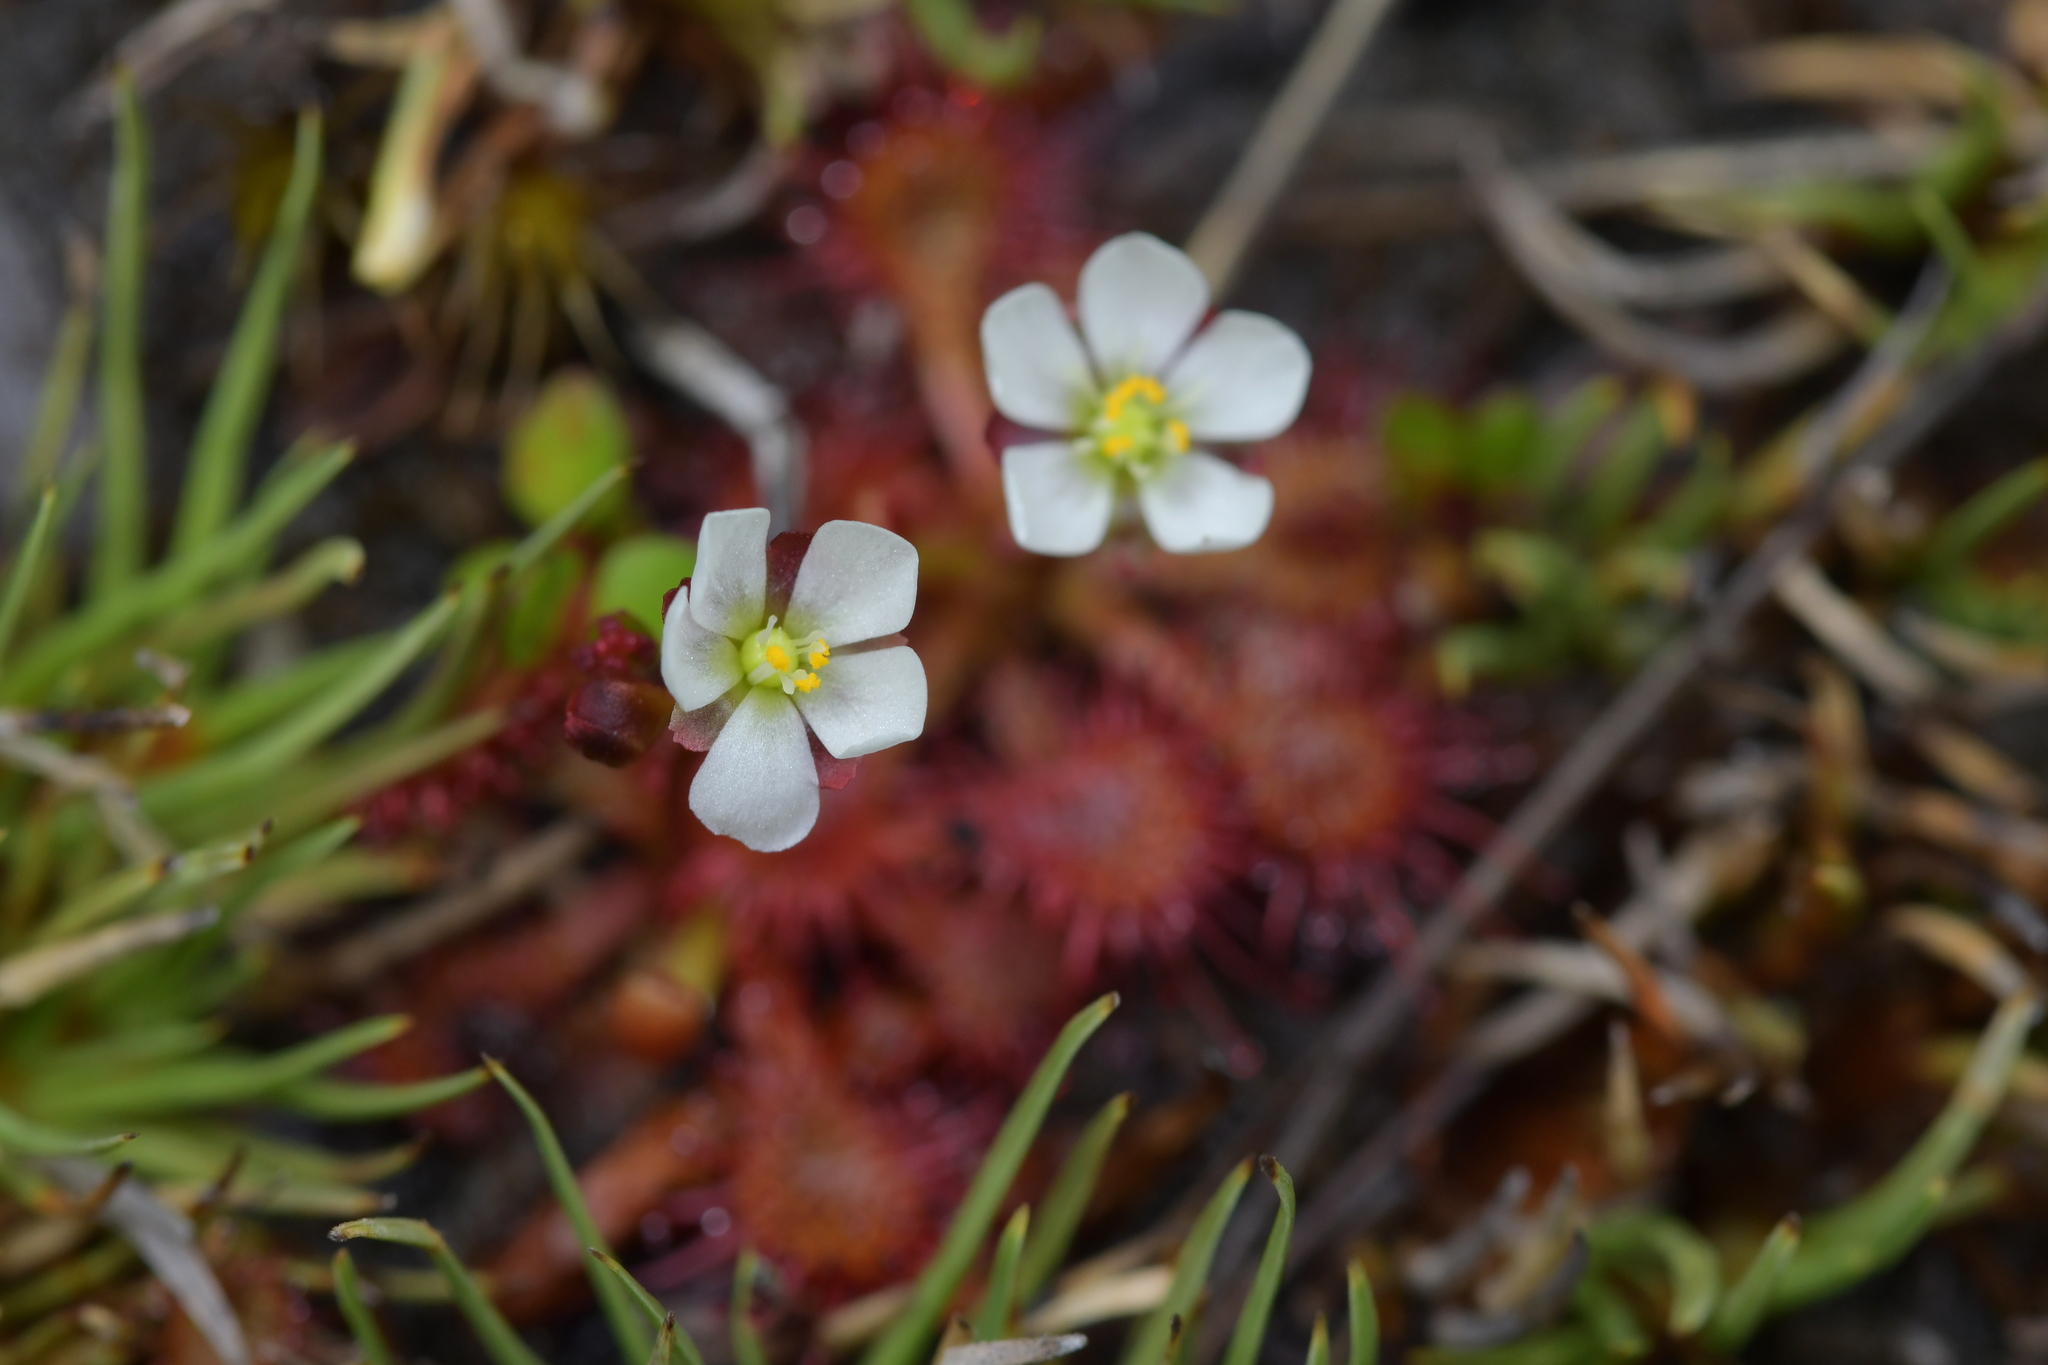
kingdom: Plantae
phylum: Tracheophyta
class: Magnoliopsida
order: Caryophyllales
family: Droseraceae
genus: Drosera
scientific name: Drosera spatulata
